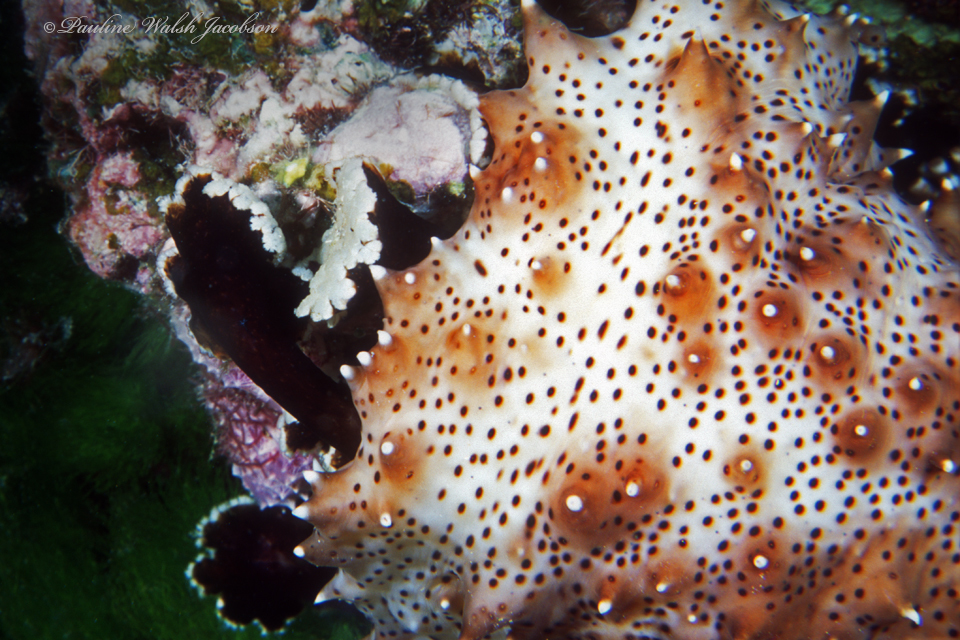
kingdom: Animalia
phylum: Echinodermata
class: Holothuroidea
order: Holothuriida
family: Holothuriidae
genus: Pearsonothuria
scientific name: Pearsonothuria graeffei
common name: Blackspotted sea cucumber
